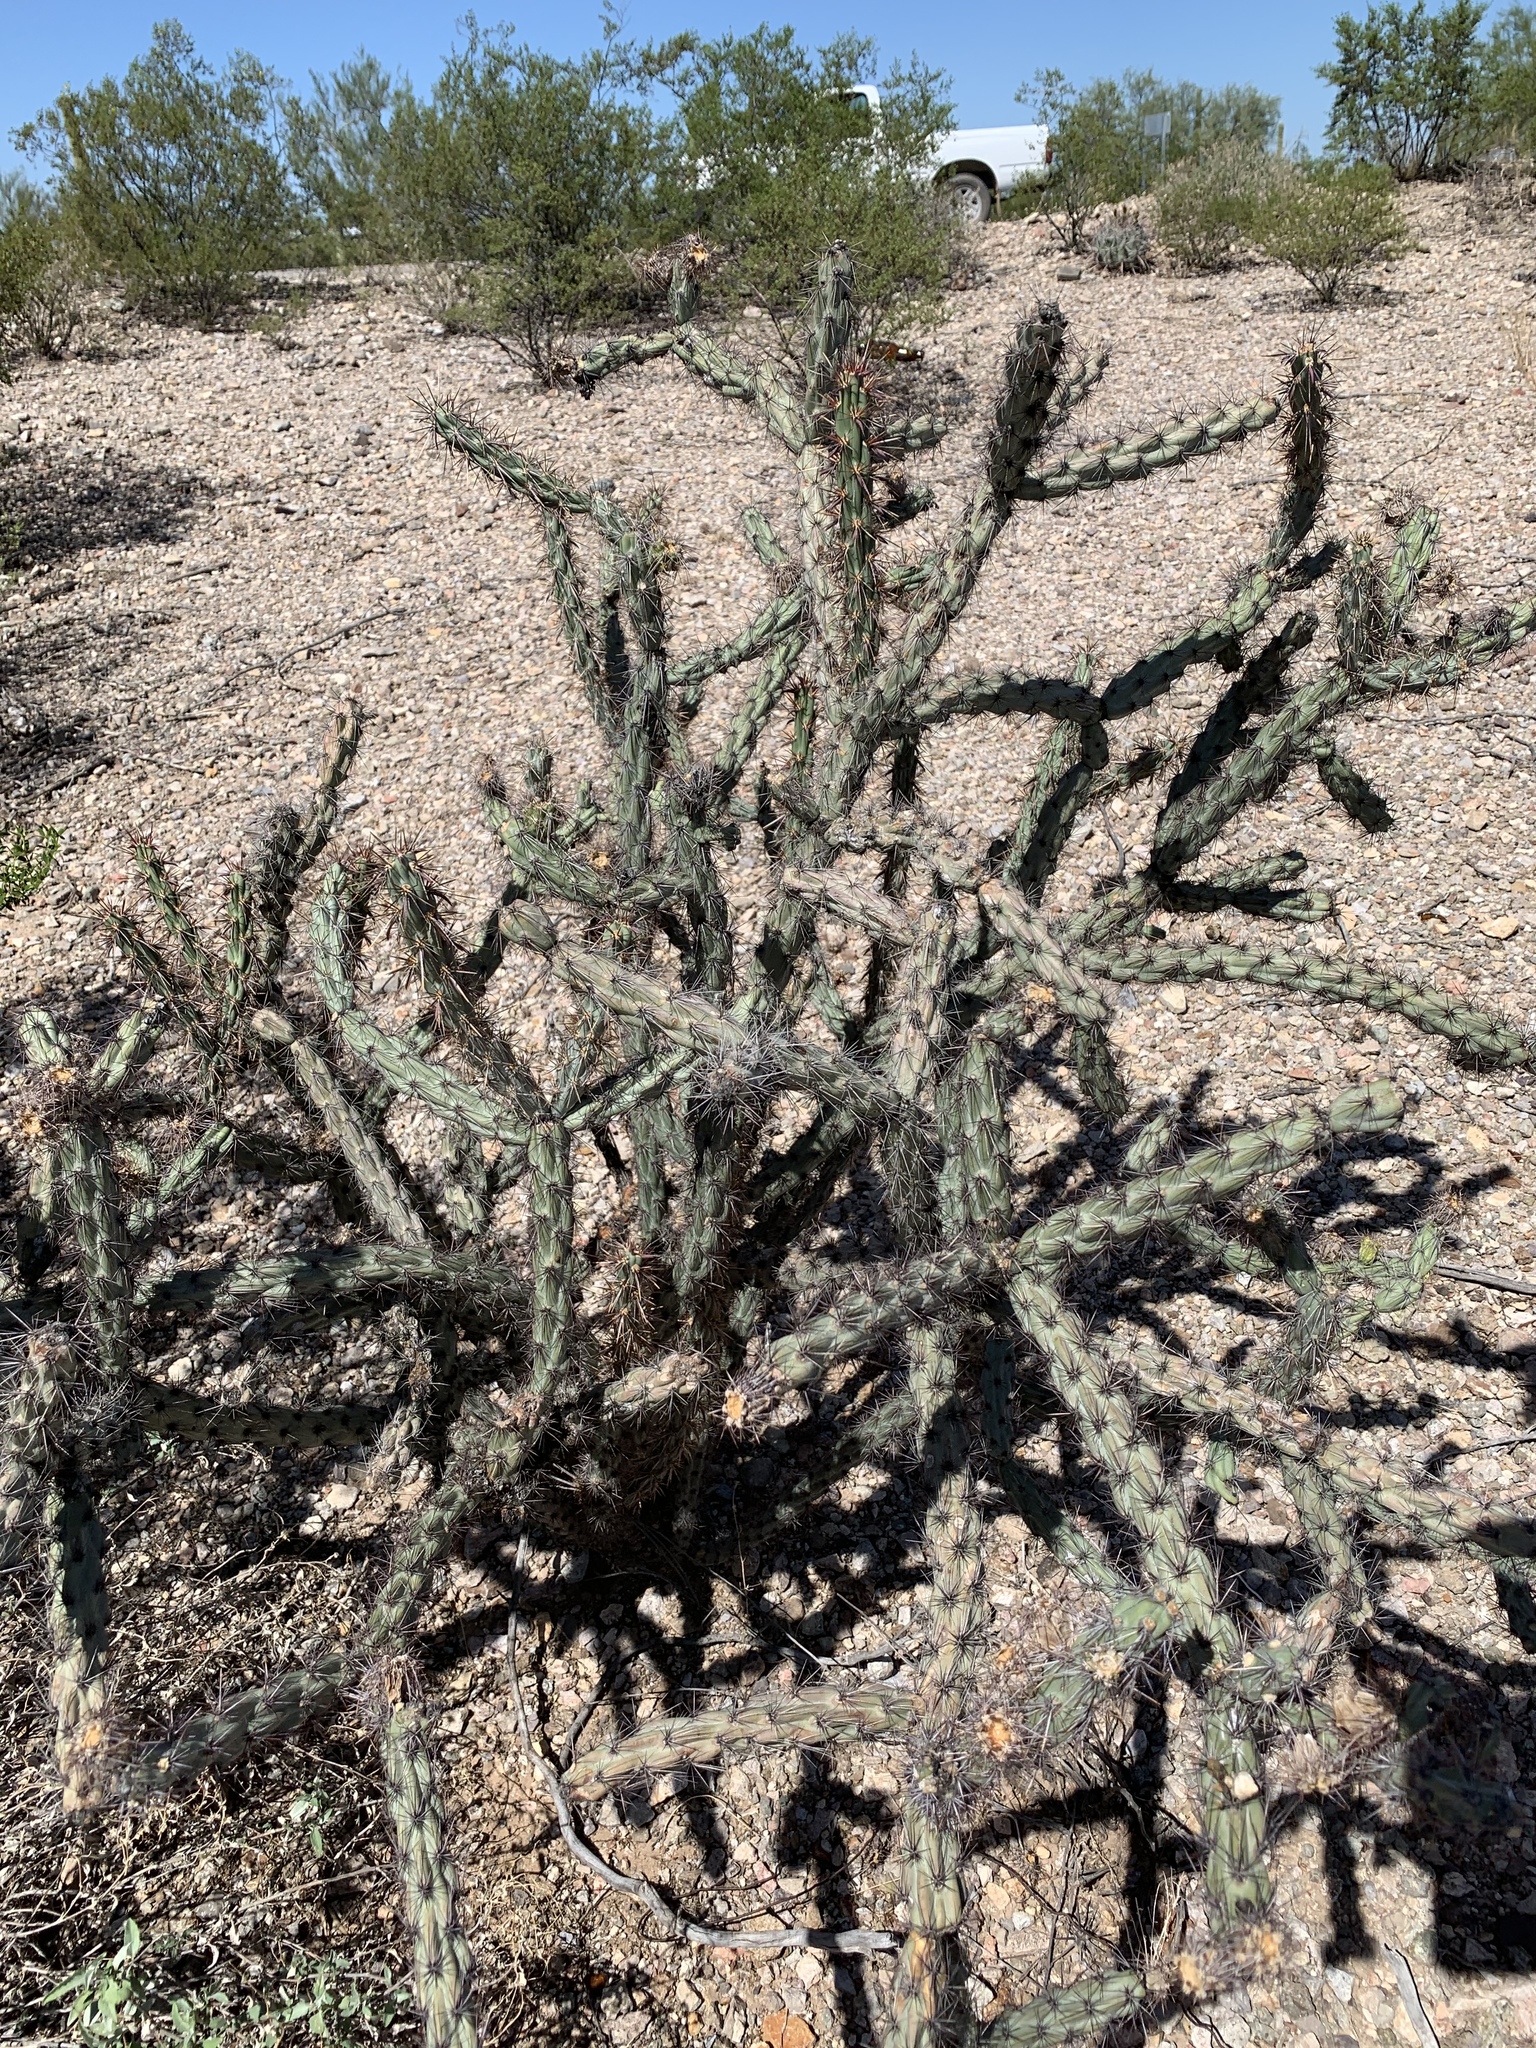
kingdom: Plantae
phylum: Tracheophyta
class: Magnoliopsida
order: Caryophyllales
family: Cactaceae
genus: Cylindropuntia
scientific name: Cylindropuntia acanthocarpa
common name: Buckhorn cholla
